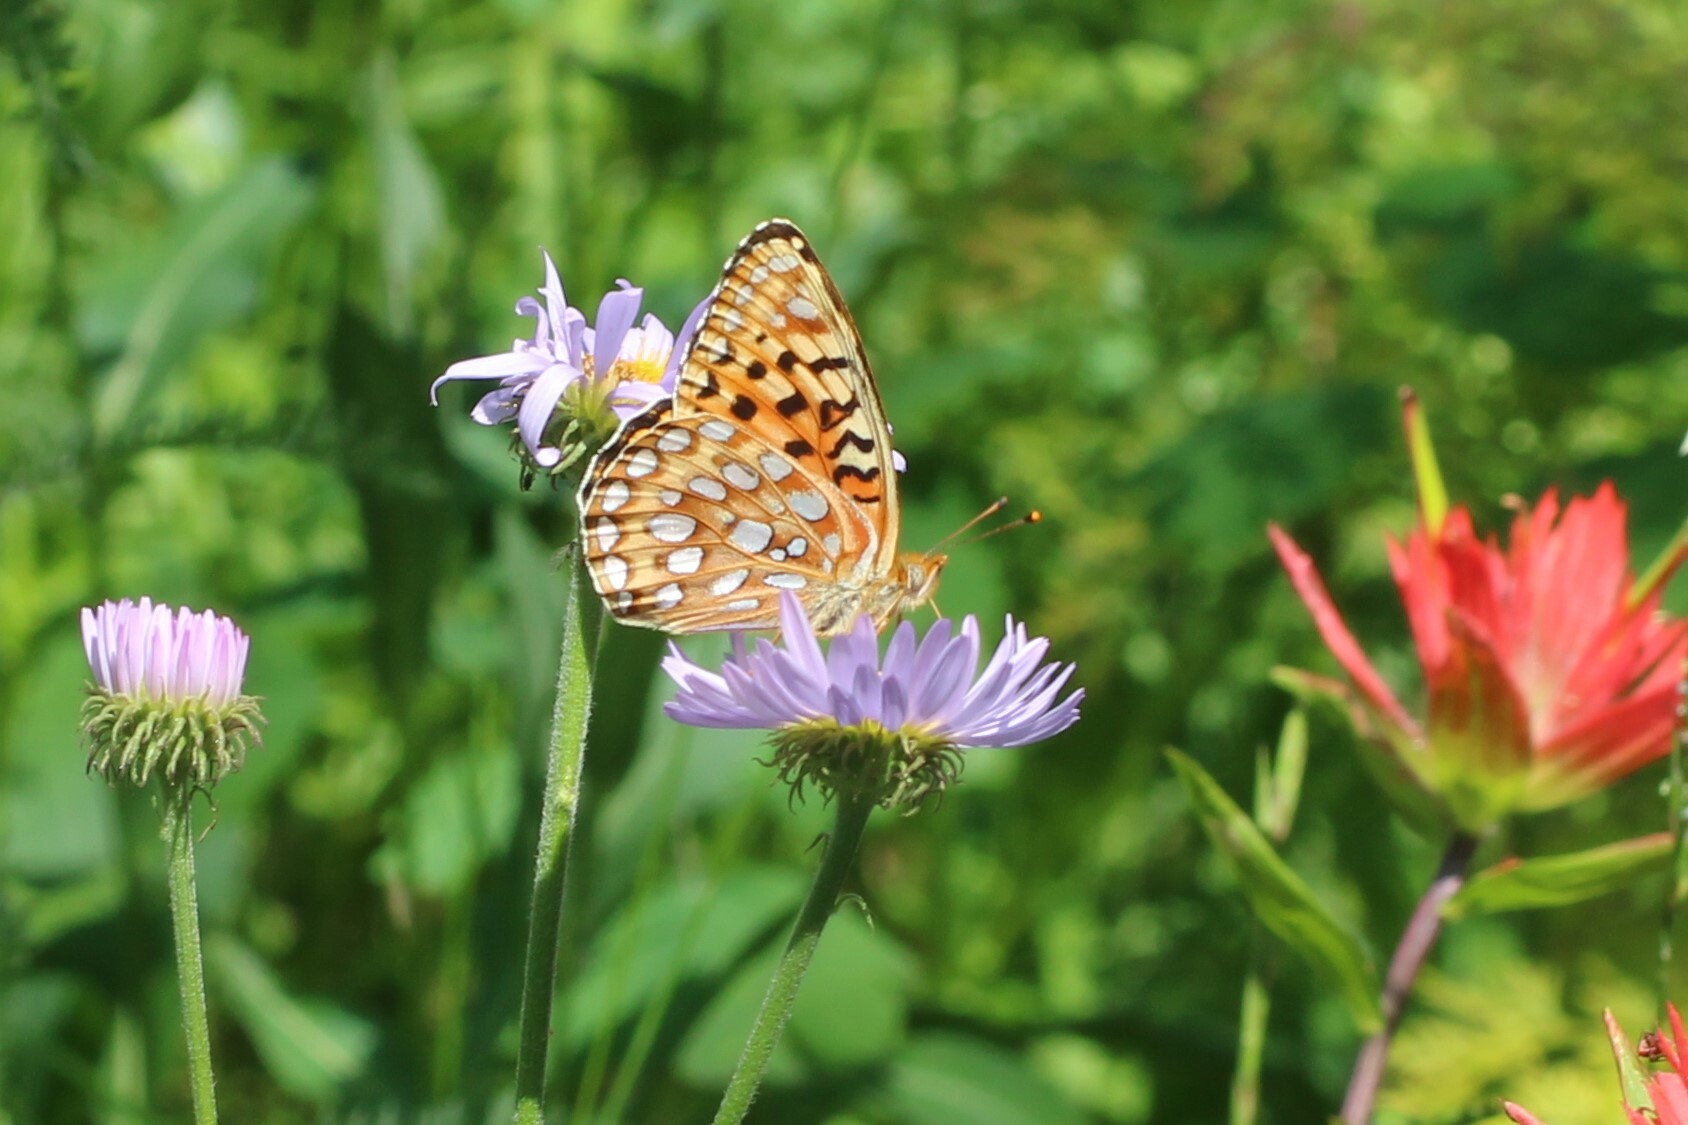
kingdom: Animalia
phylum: Arthropoda
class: Insecta
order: Lepidoptera
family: Nymphalidae
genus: Speyeria
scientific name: Speyeria zerene
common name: Zerene fritillary
